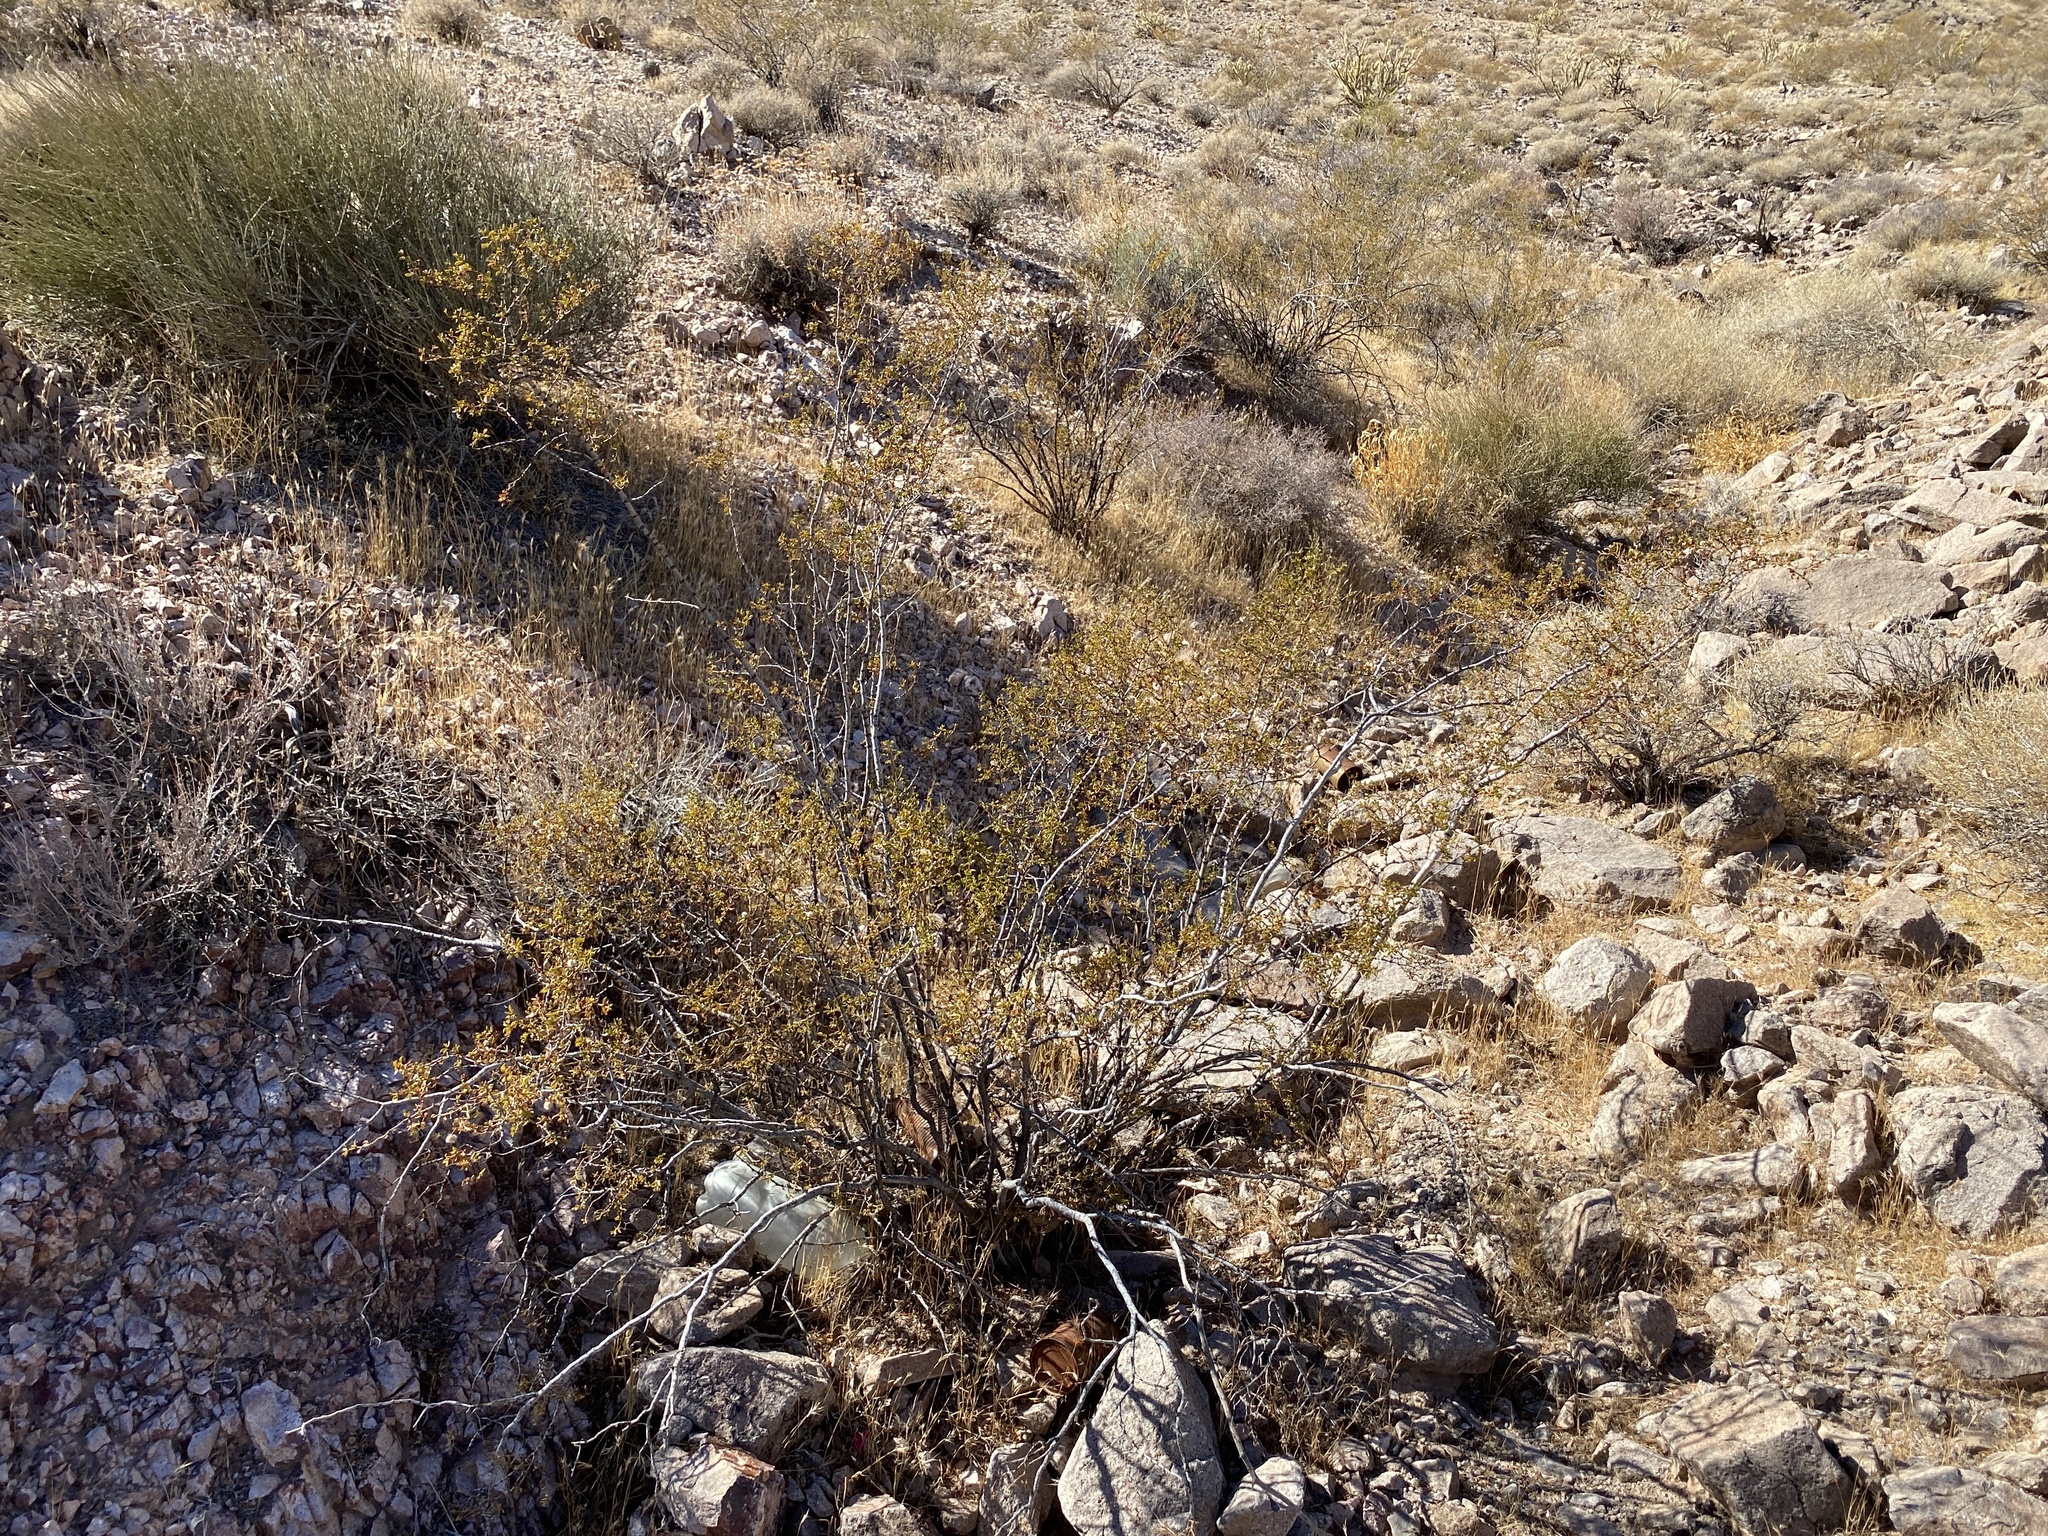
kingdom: Plantae
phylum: Tracheophyta
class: Magnoliopsida
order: Zygophyllales
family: Zygophyllaceae
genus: Larrea
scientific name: Larrea tridentata
